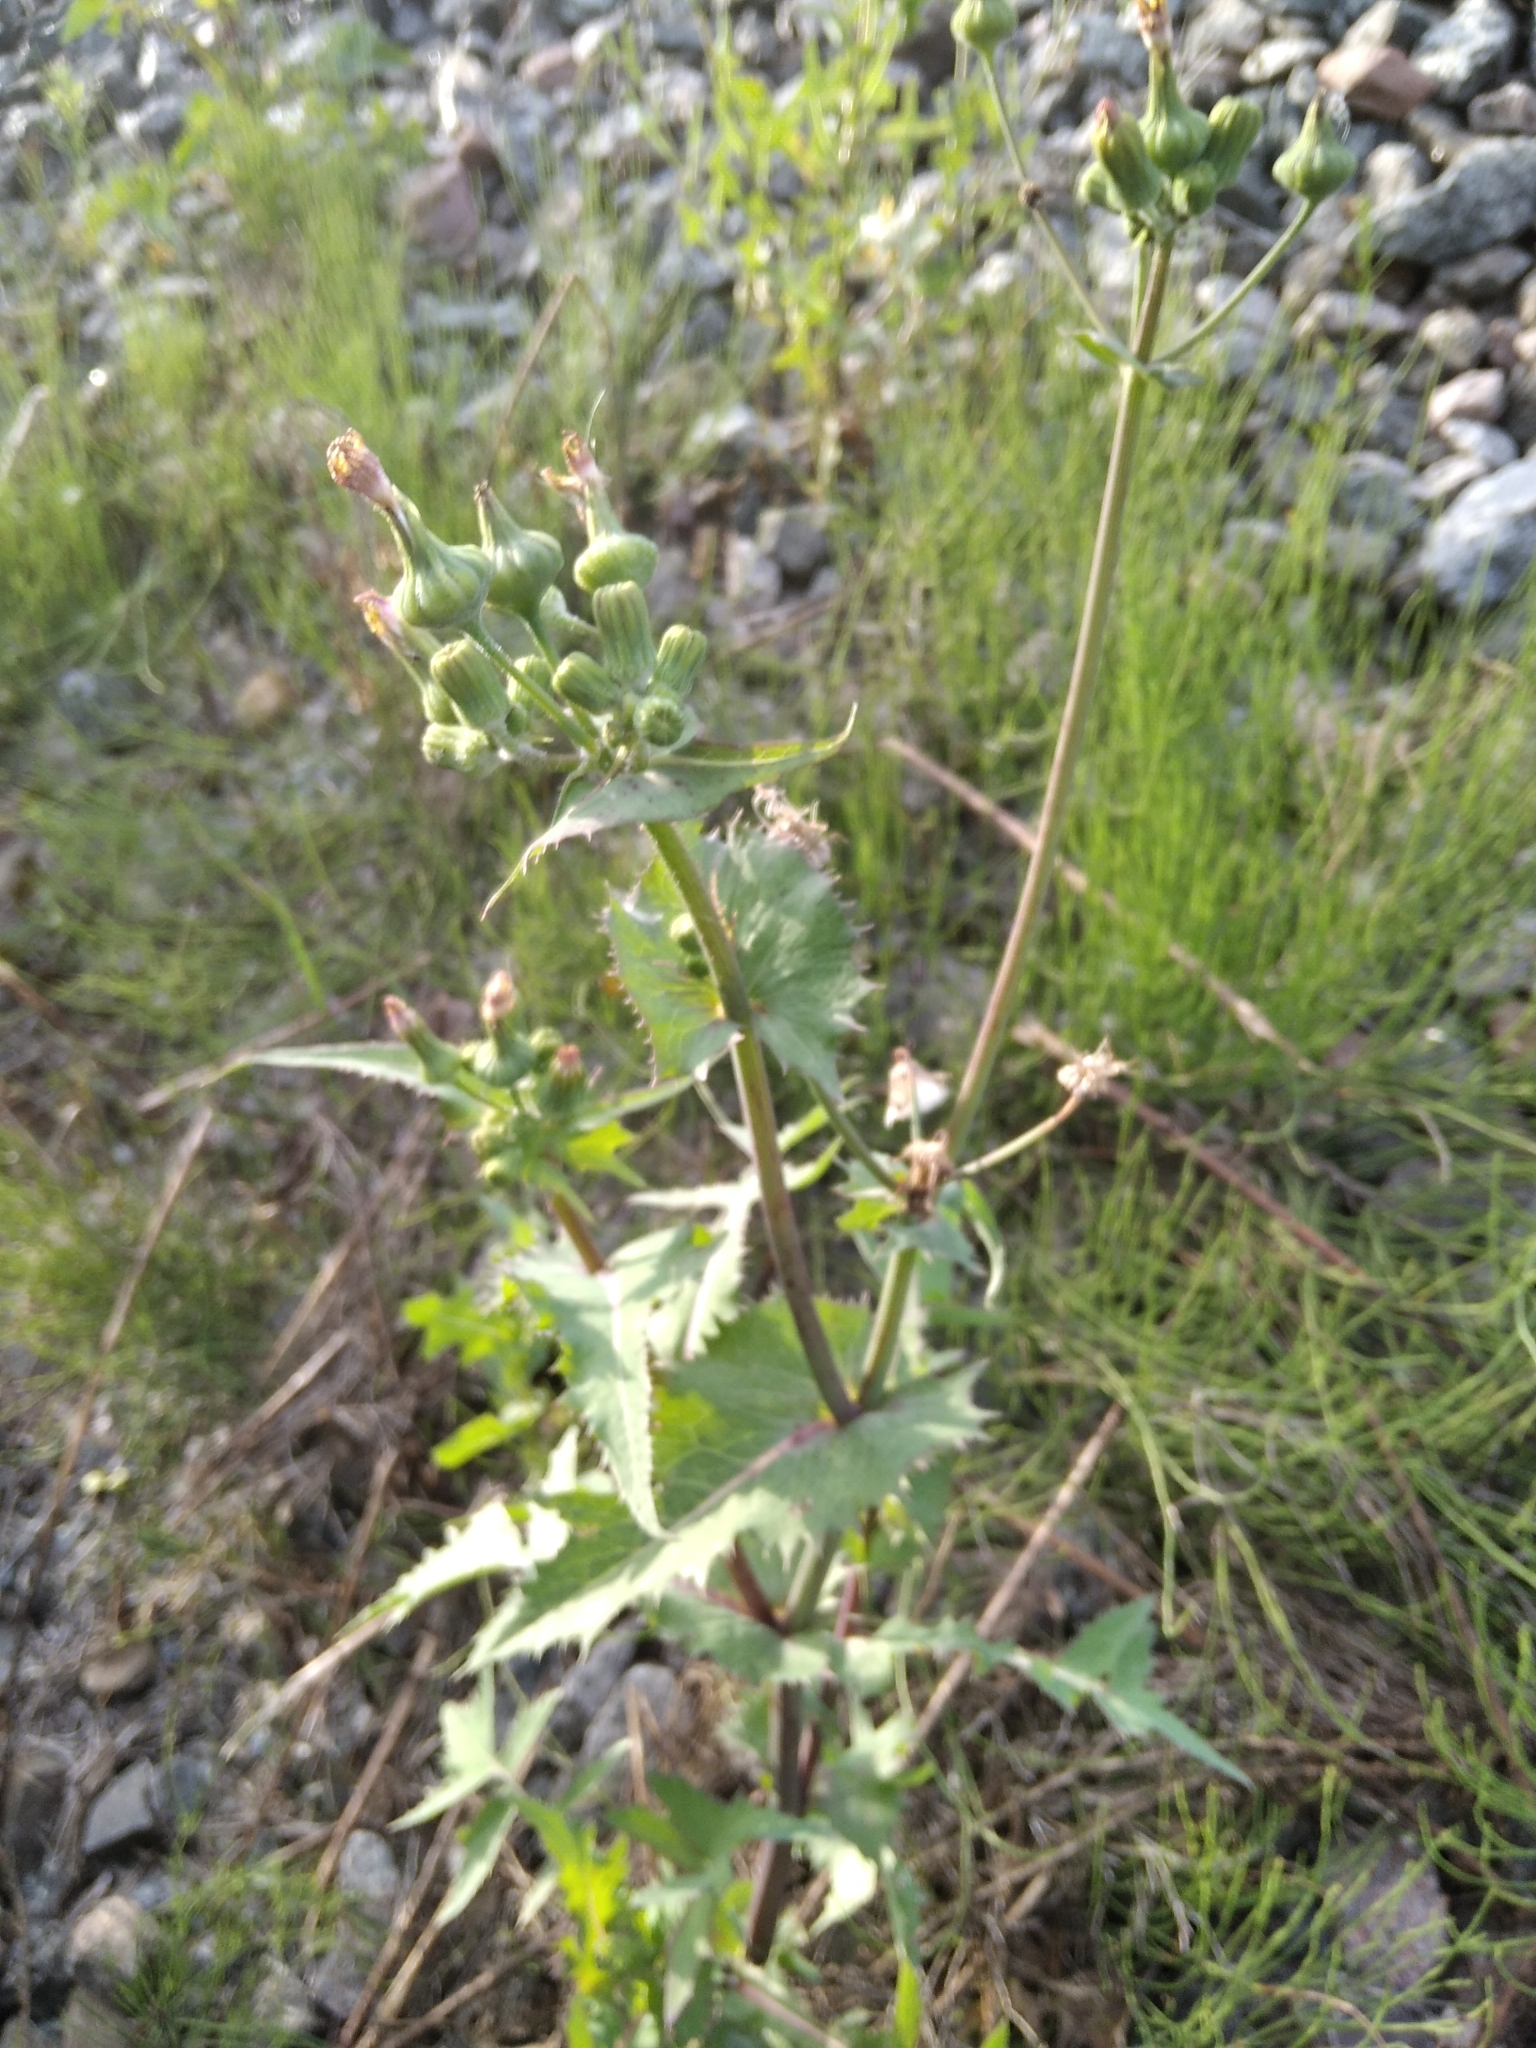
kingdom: Plantae
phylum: Tracheophyta
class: Magnoliopsida
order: Asterales
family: Asteraceae
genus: Sonchus
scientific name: Sonchus oleraceus
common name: Common sowthistle
